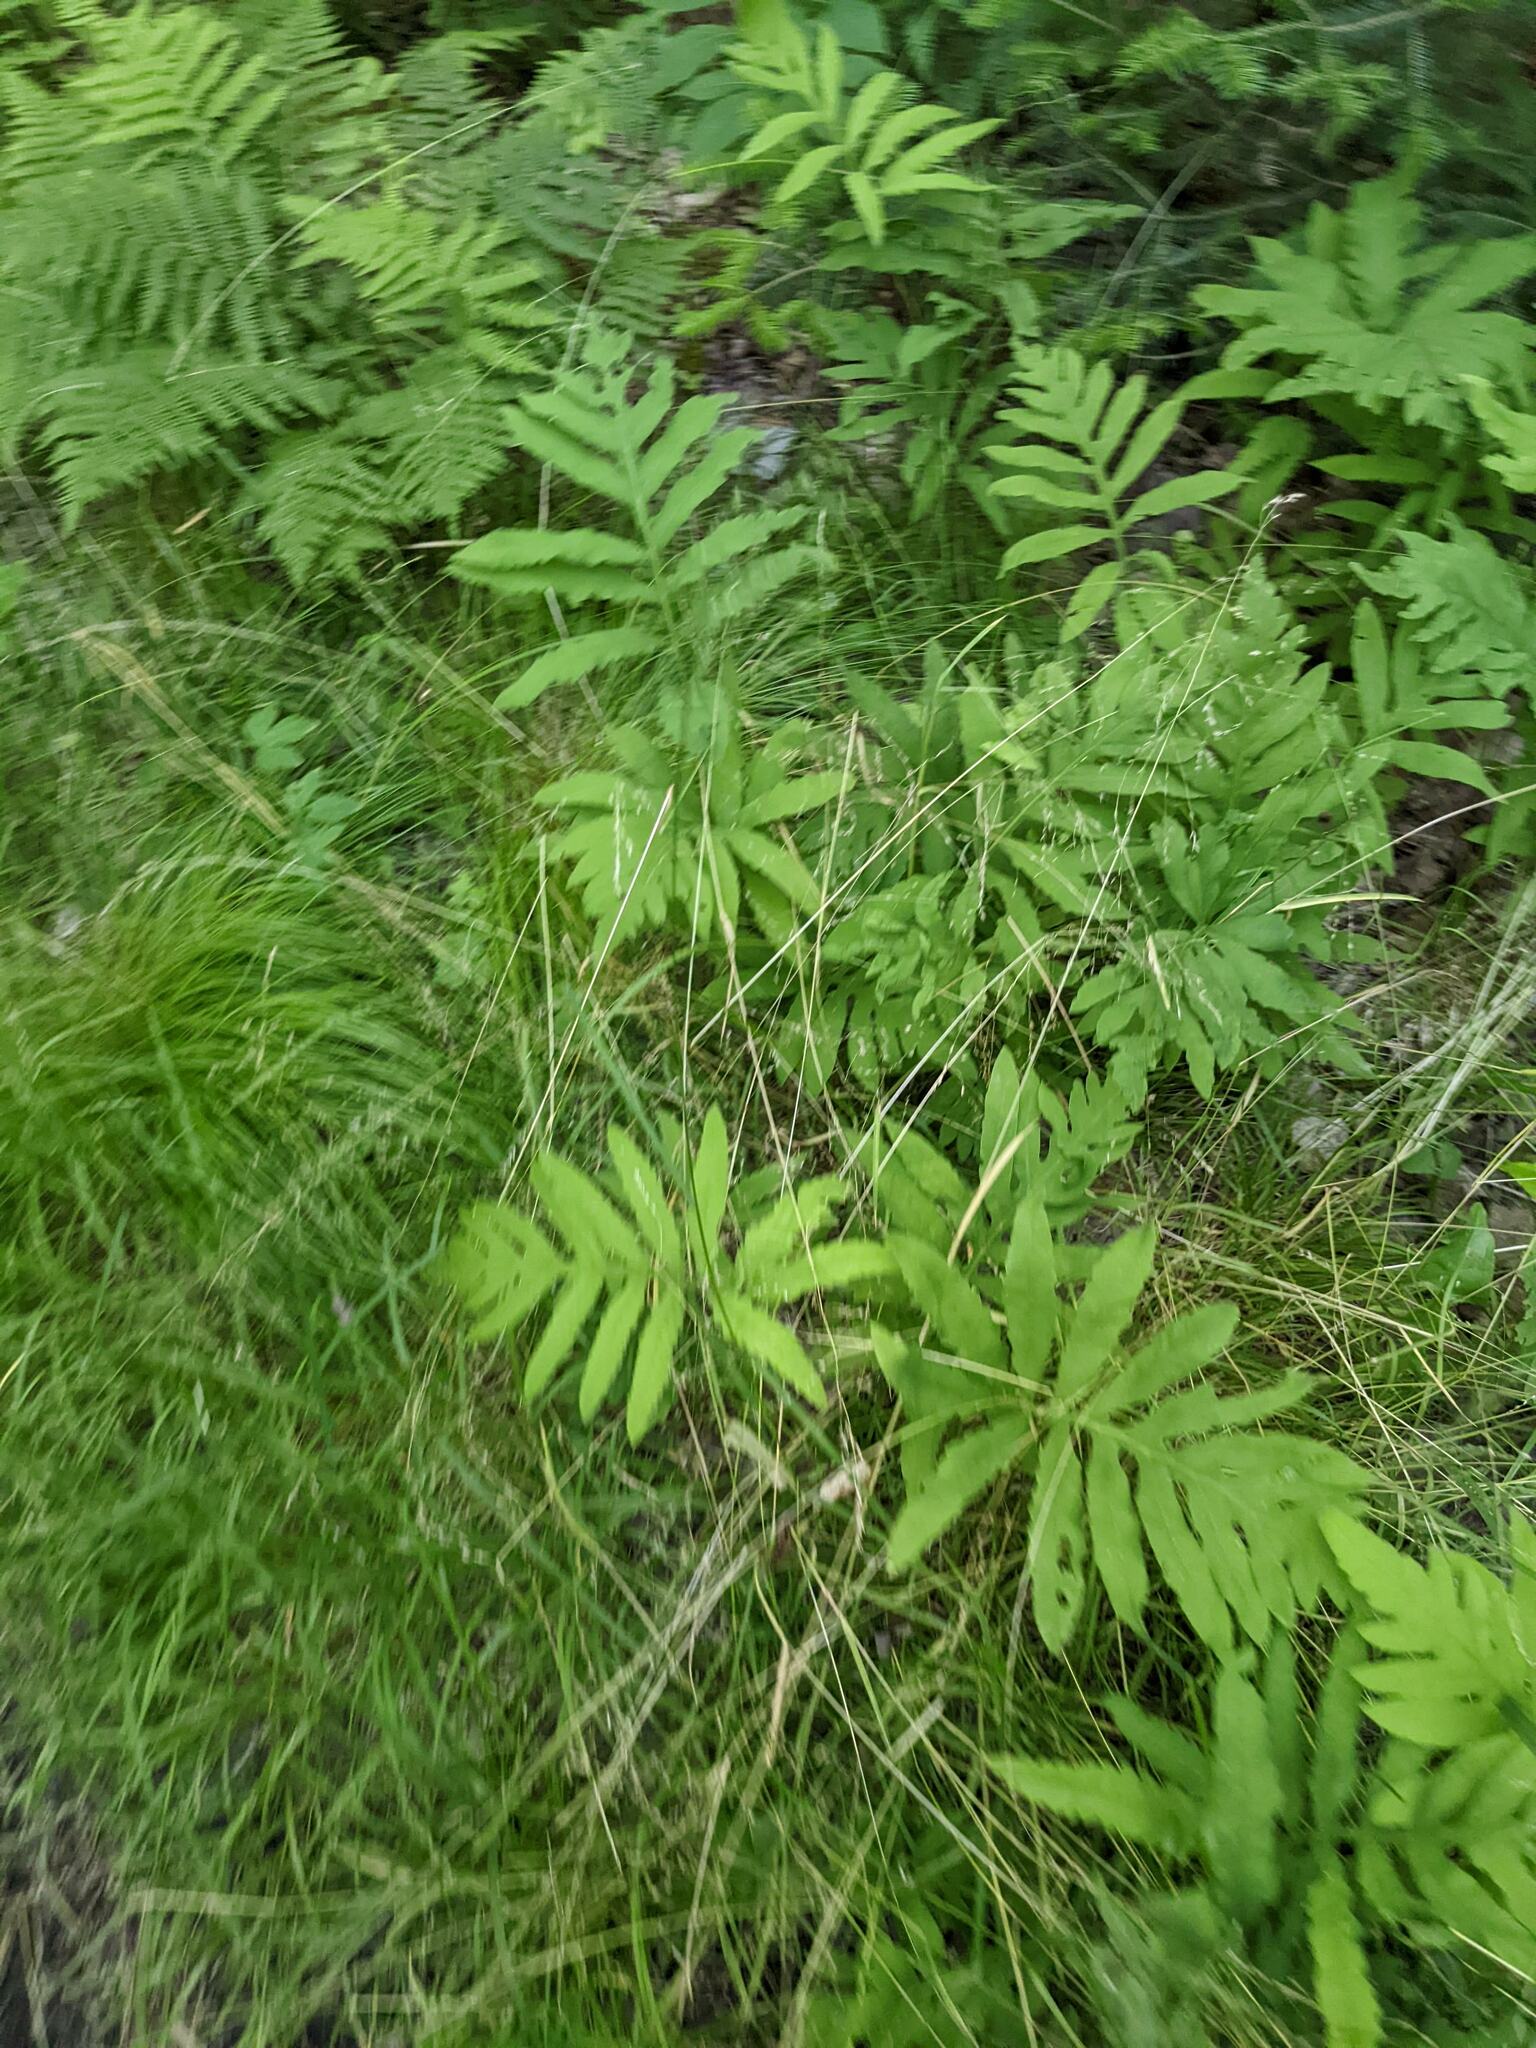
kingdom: Plantae
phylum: Tracheophyta
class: Polypodiopsida
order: Polypodiales
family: Onocleaceae
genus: Onoclea
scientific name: Onoclea sensibilis
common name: Sensitive fern
